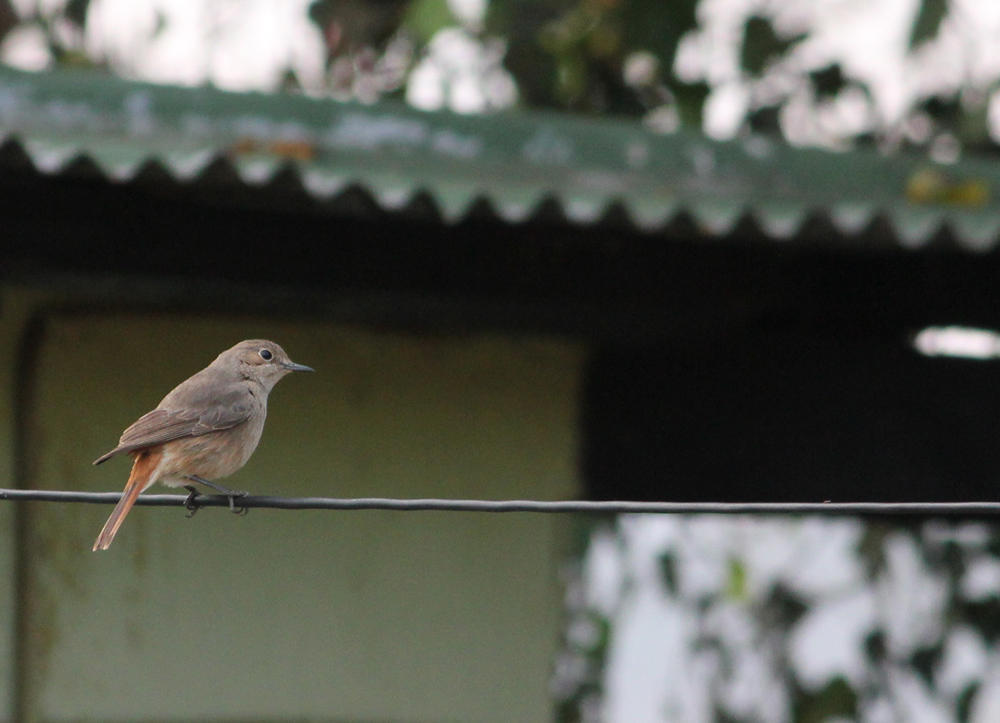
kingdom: Animalia
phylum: Chordata
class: Aves
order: Passeriformes
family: Muscicapidae
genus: Oenanthe
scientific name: Oenanthe familiaris
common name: Familiar chat
